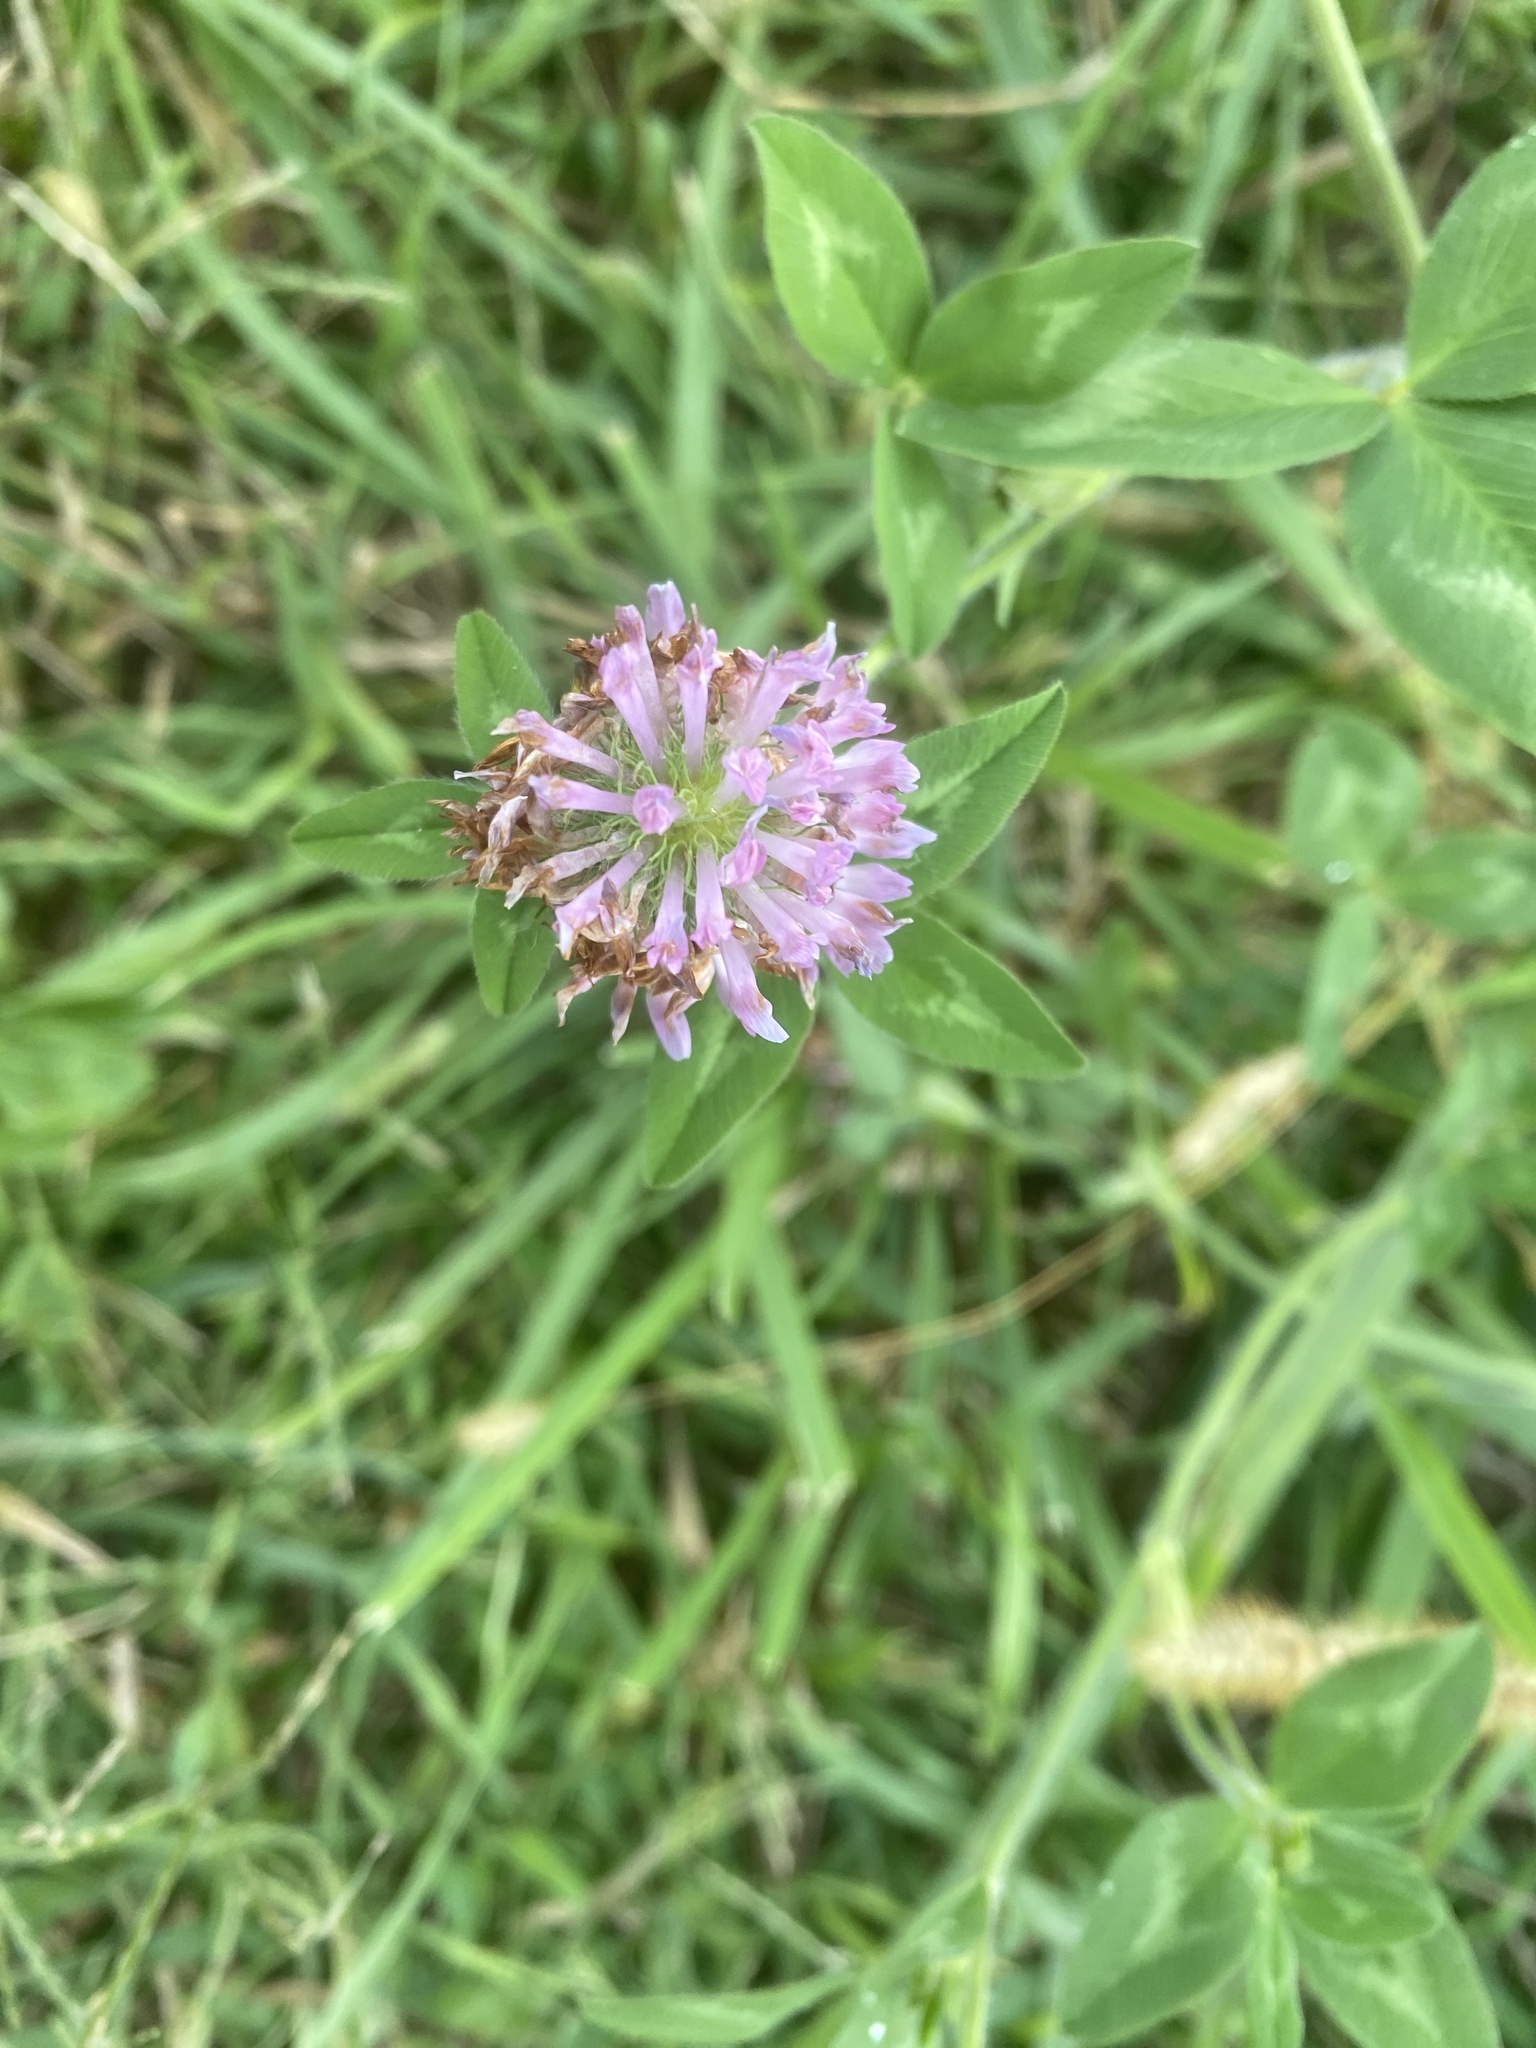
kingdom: Plantae
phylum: Tracheophyta
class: Magnoliopsida
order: Fabales
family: Fabaceae
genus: Trifolium
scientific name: Trifolium pratense
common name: Red clover
